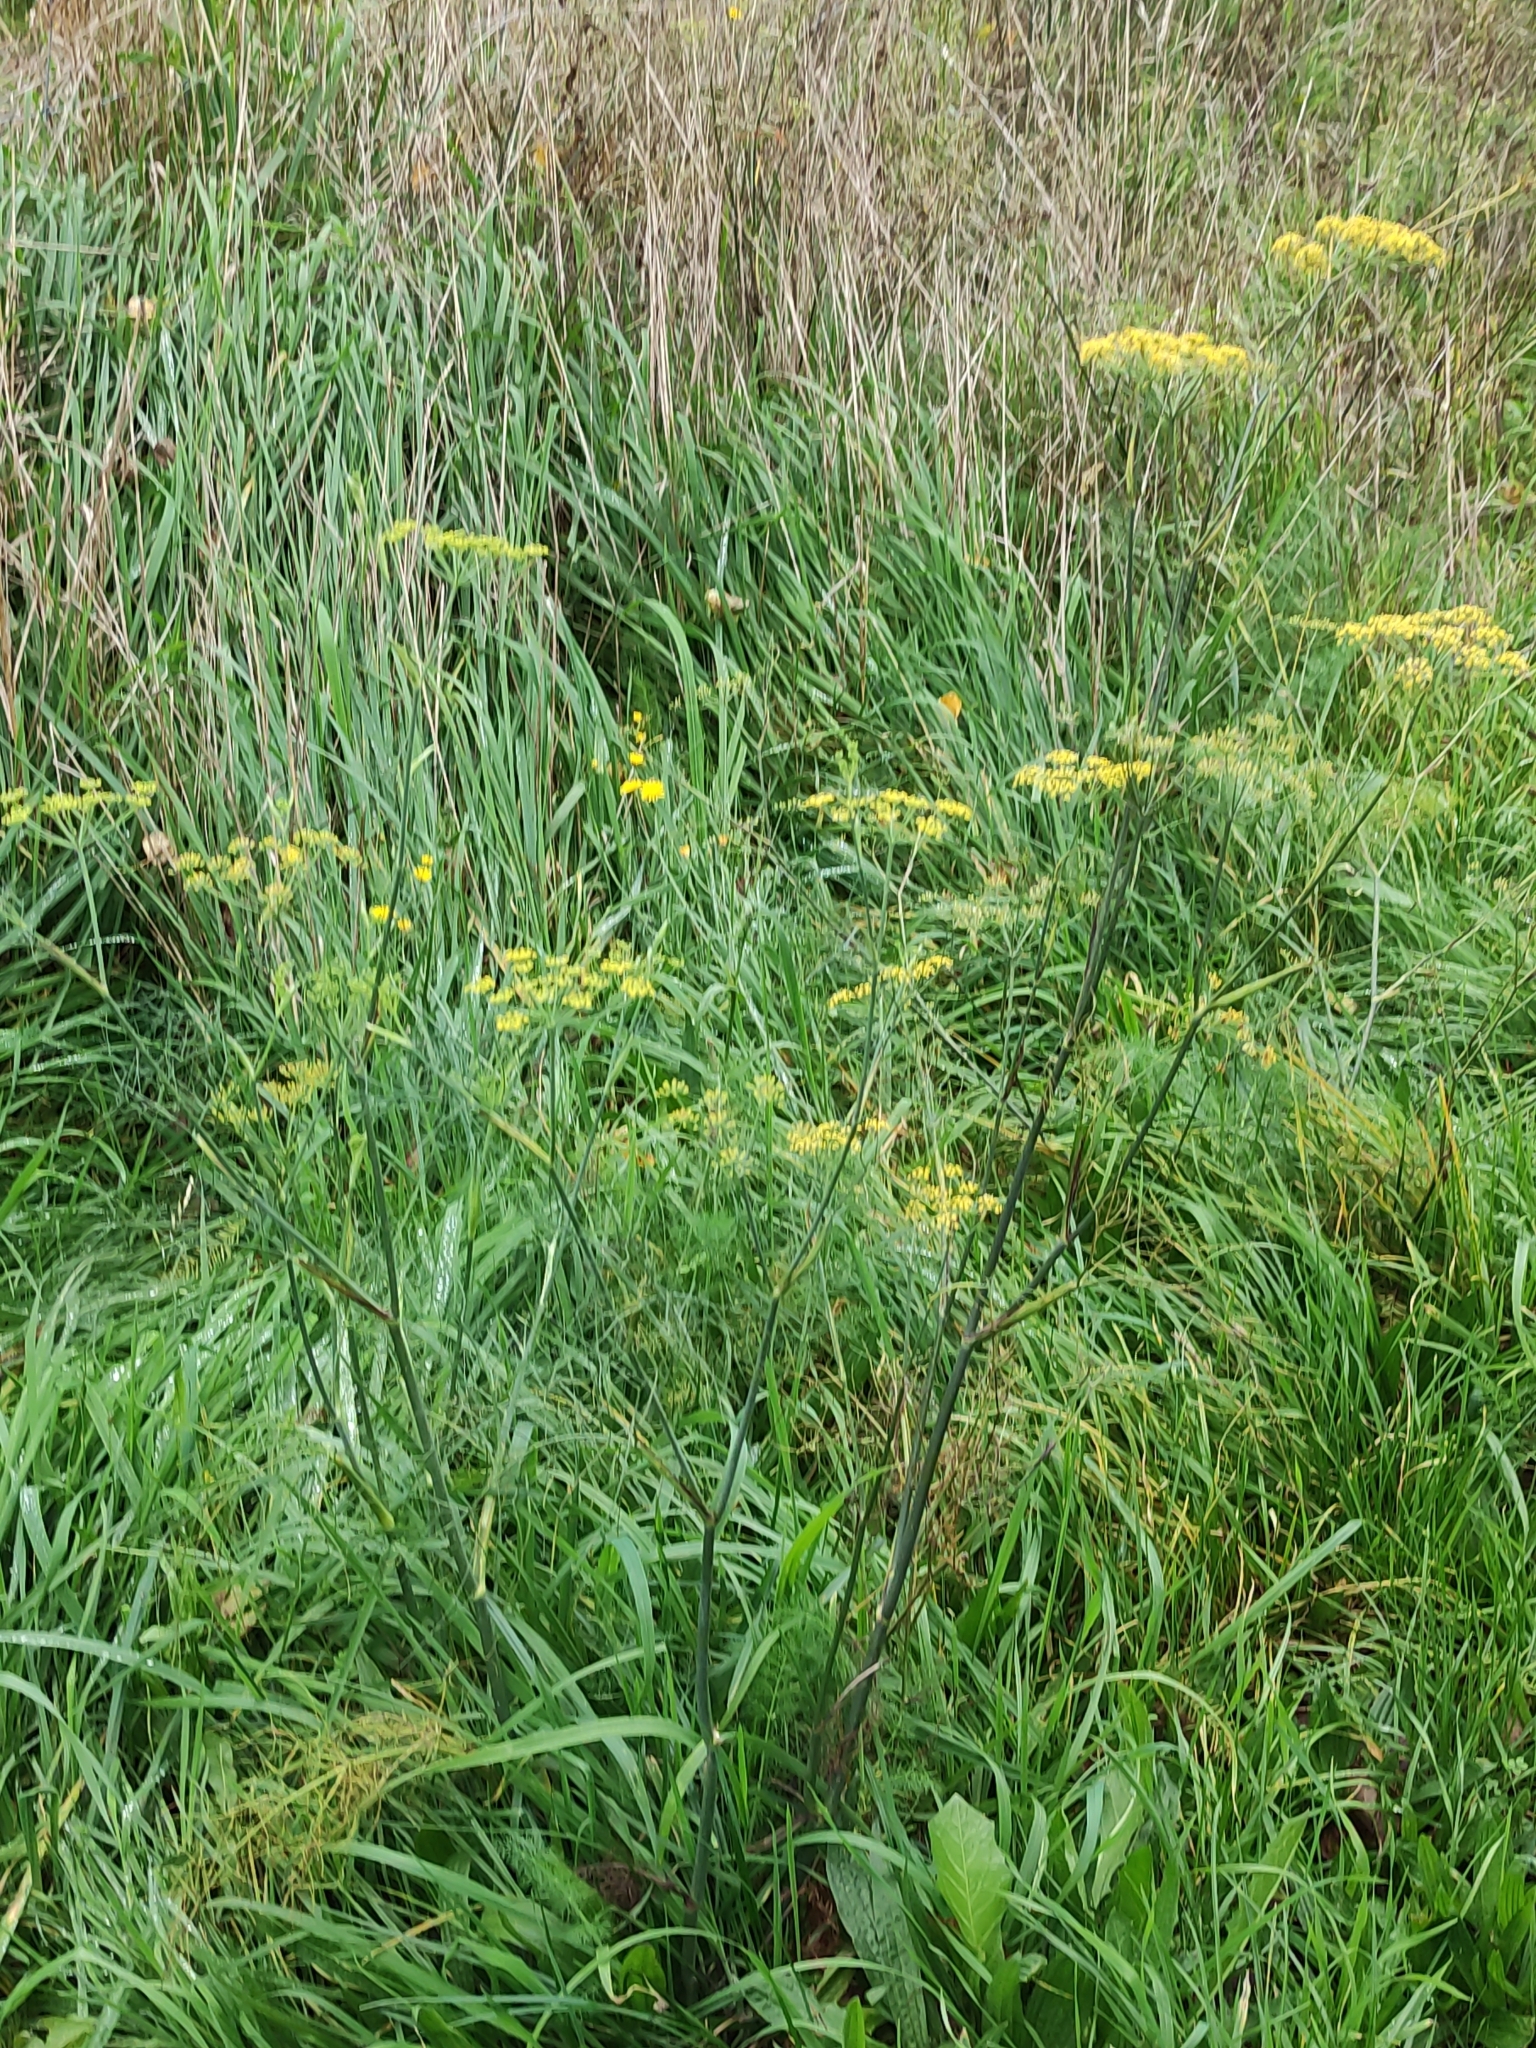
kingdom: Plantae
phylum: Tracheophyta
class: Magnoliopsida
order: Apiales
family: Apiaceae
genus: Foeniculum
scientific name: Foeniculum vulgare
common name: Fennel
